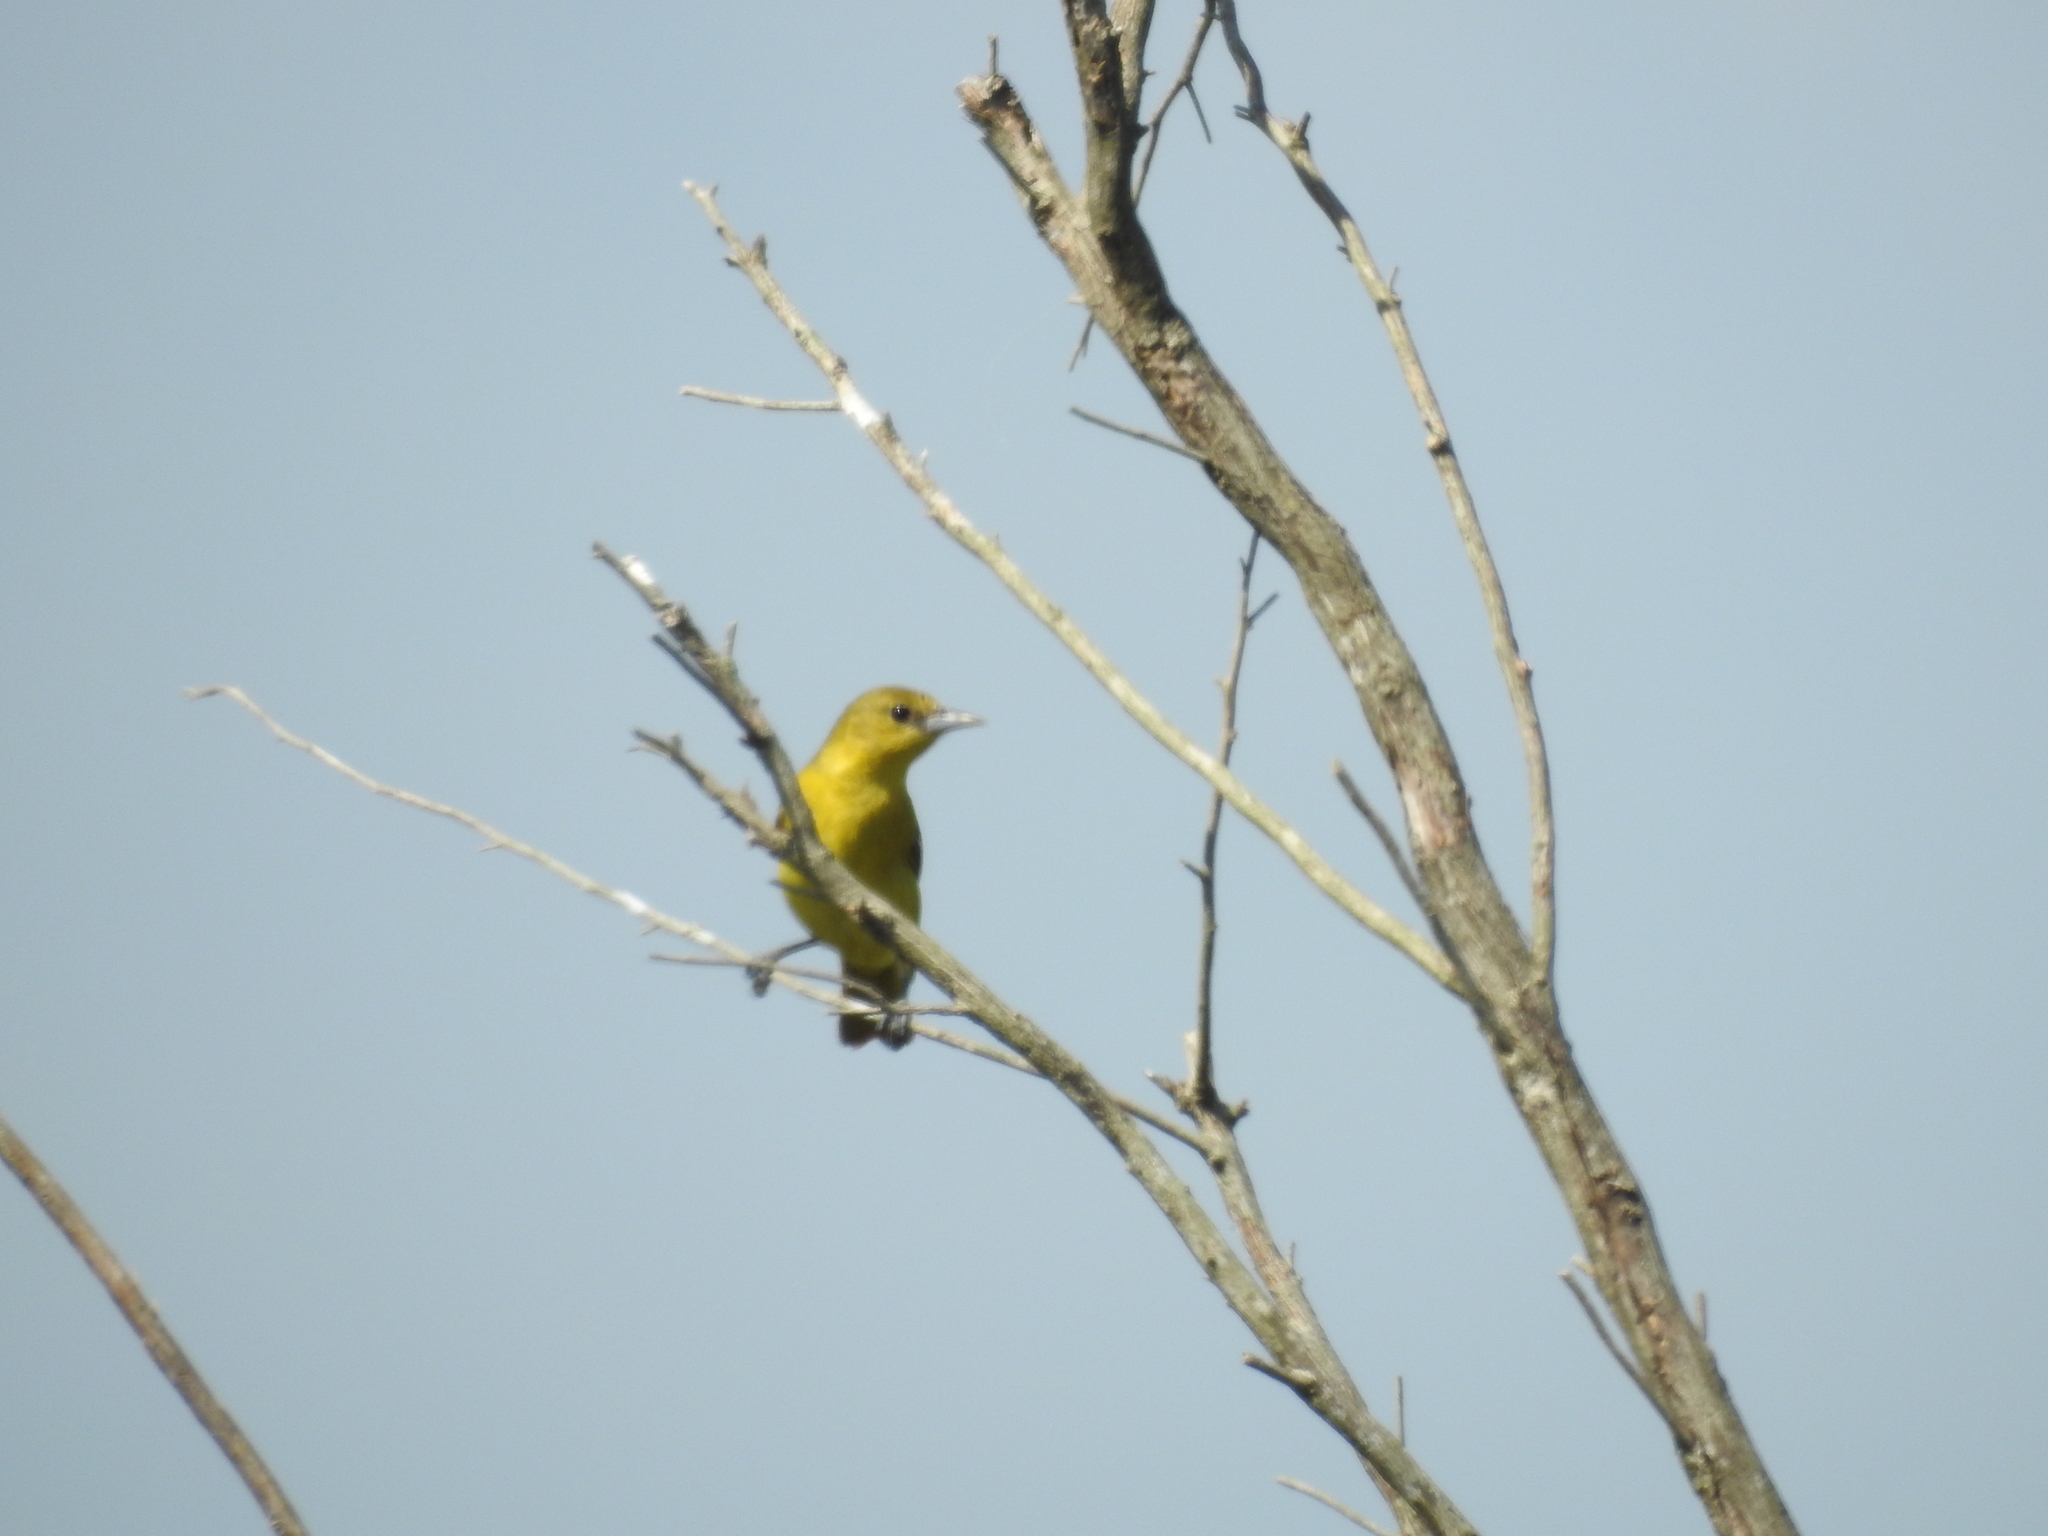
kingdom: Animalia
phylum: Chordata
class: Aves
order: Passeriformes
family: Icteridae
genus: Icterus
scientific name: Icterus spurius
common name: Orchard oriole
